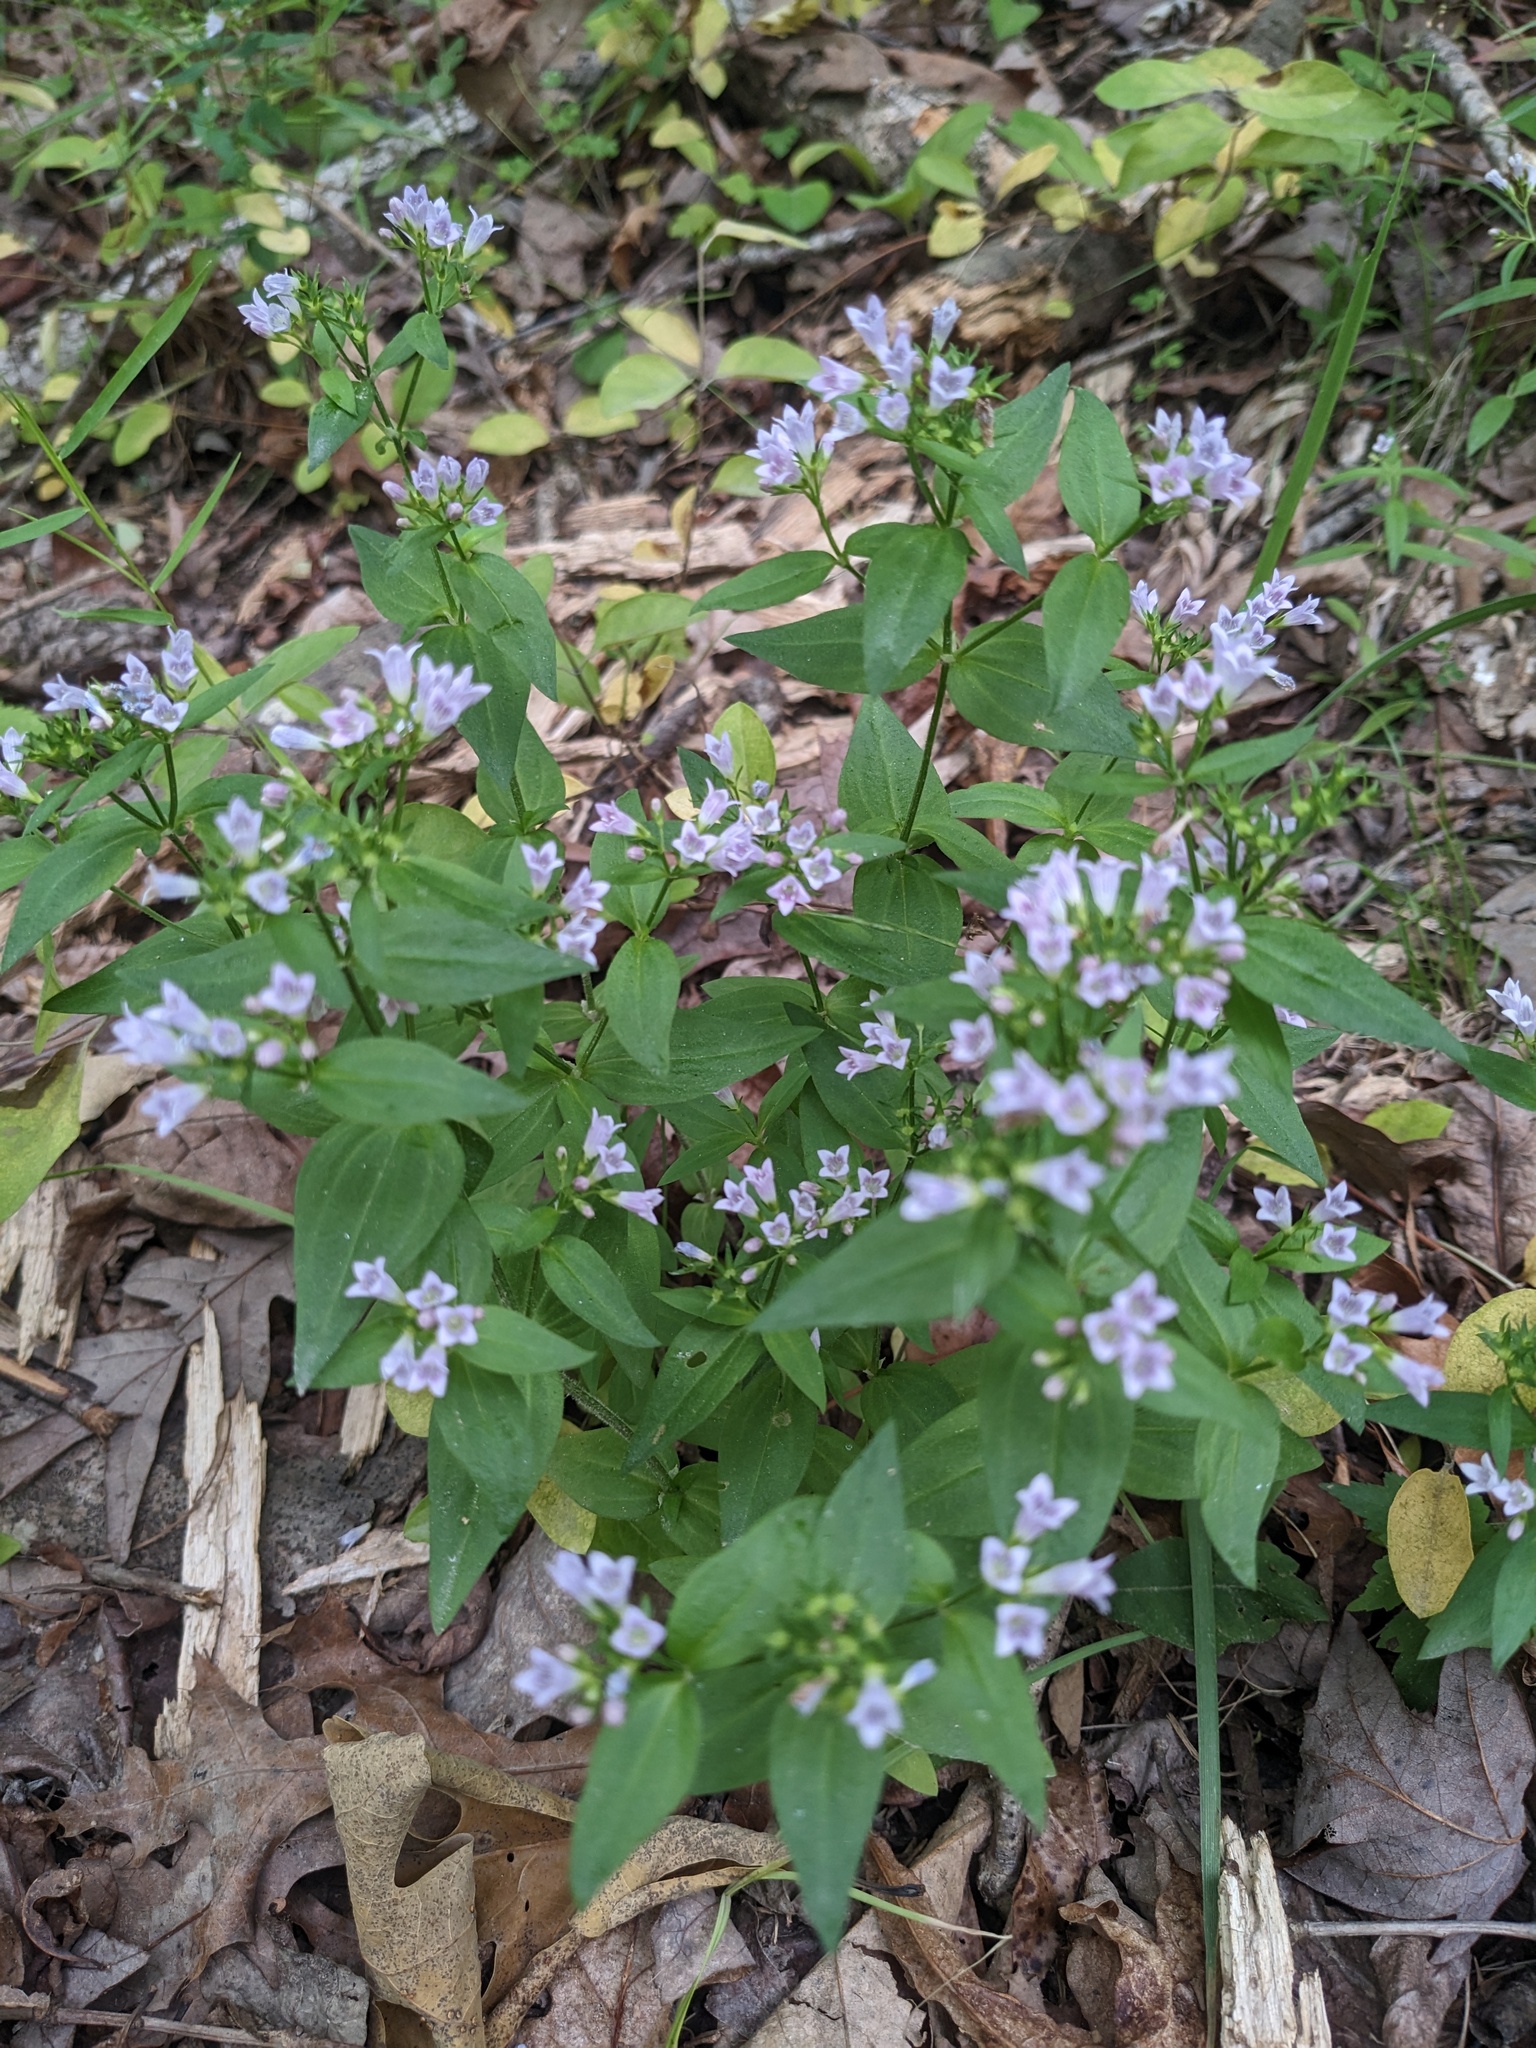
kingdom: Plantae
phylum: Tracheophyta
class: Magnoliopsida
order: Gentianales
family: Rubiaceae
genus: Houstonia
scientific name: Houstonia purpurea
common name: Summer bluet
